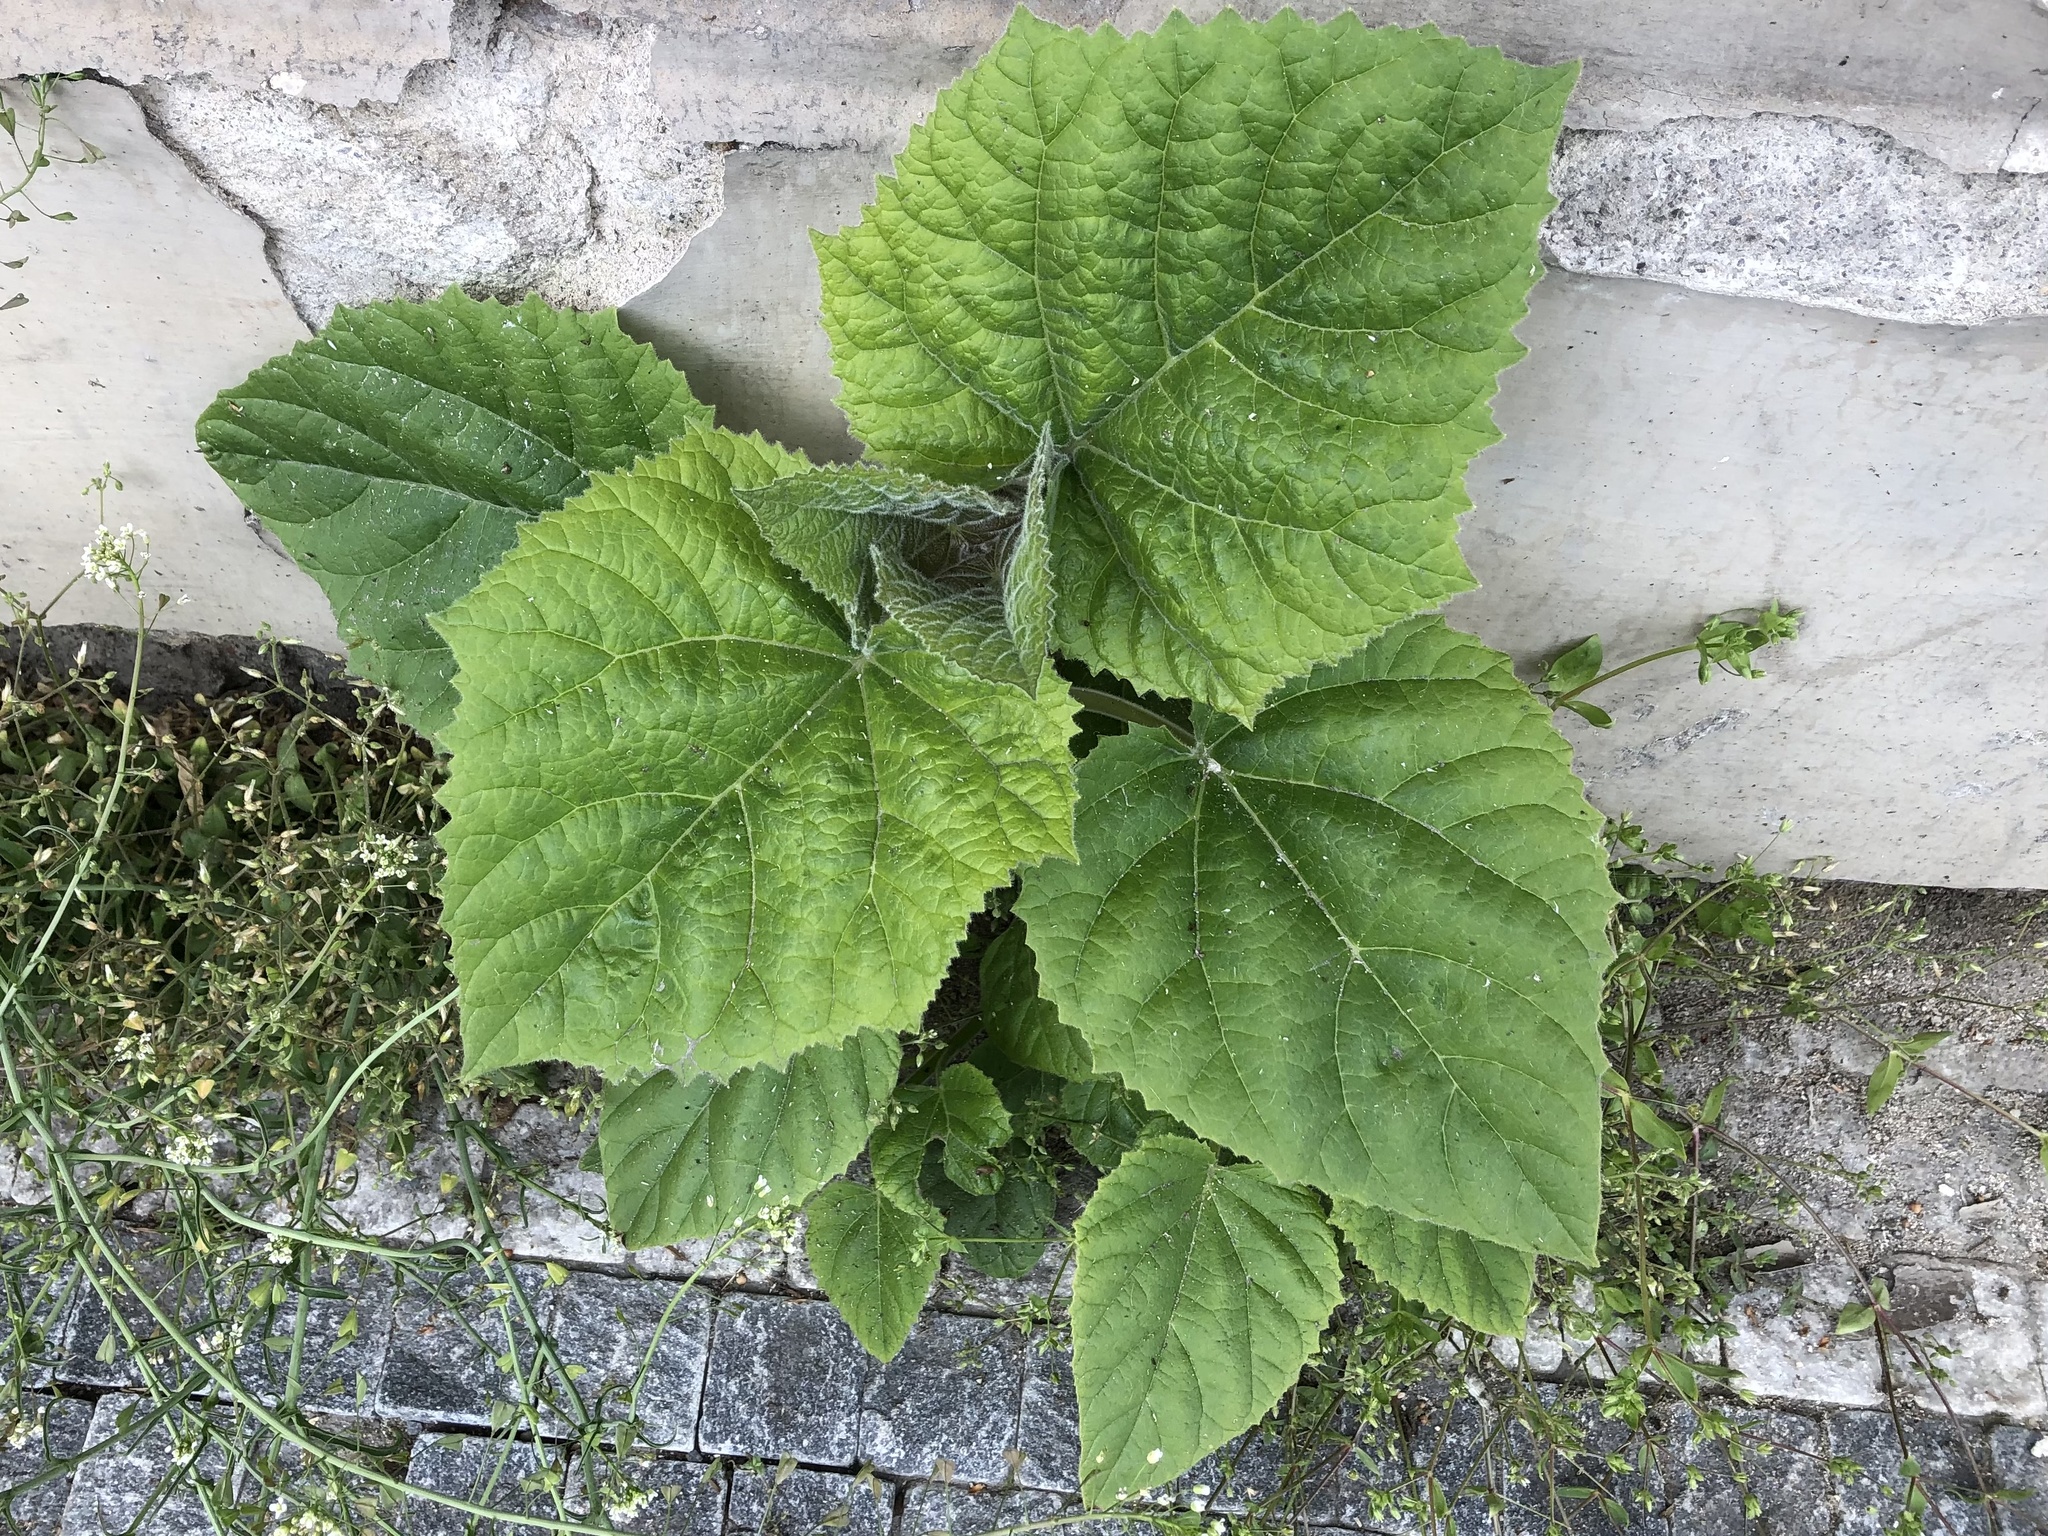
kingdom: Plantae
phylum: Tracheophyta
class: Magnoliopsida
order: Lamiales
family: Paulowniaceae
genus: Paulownia
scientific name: Paulownia tomentosa
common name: Foxglove-tree
